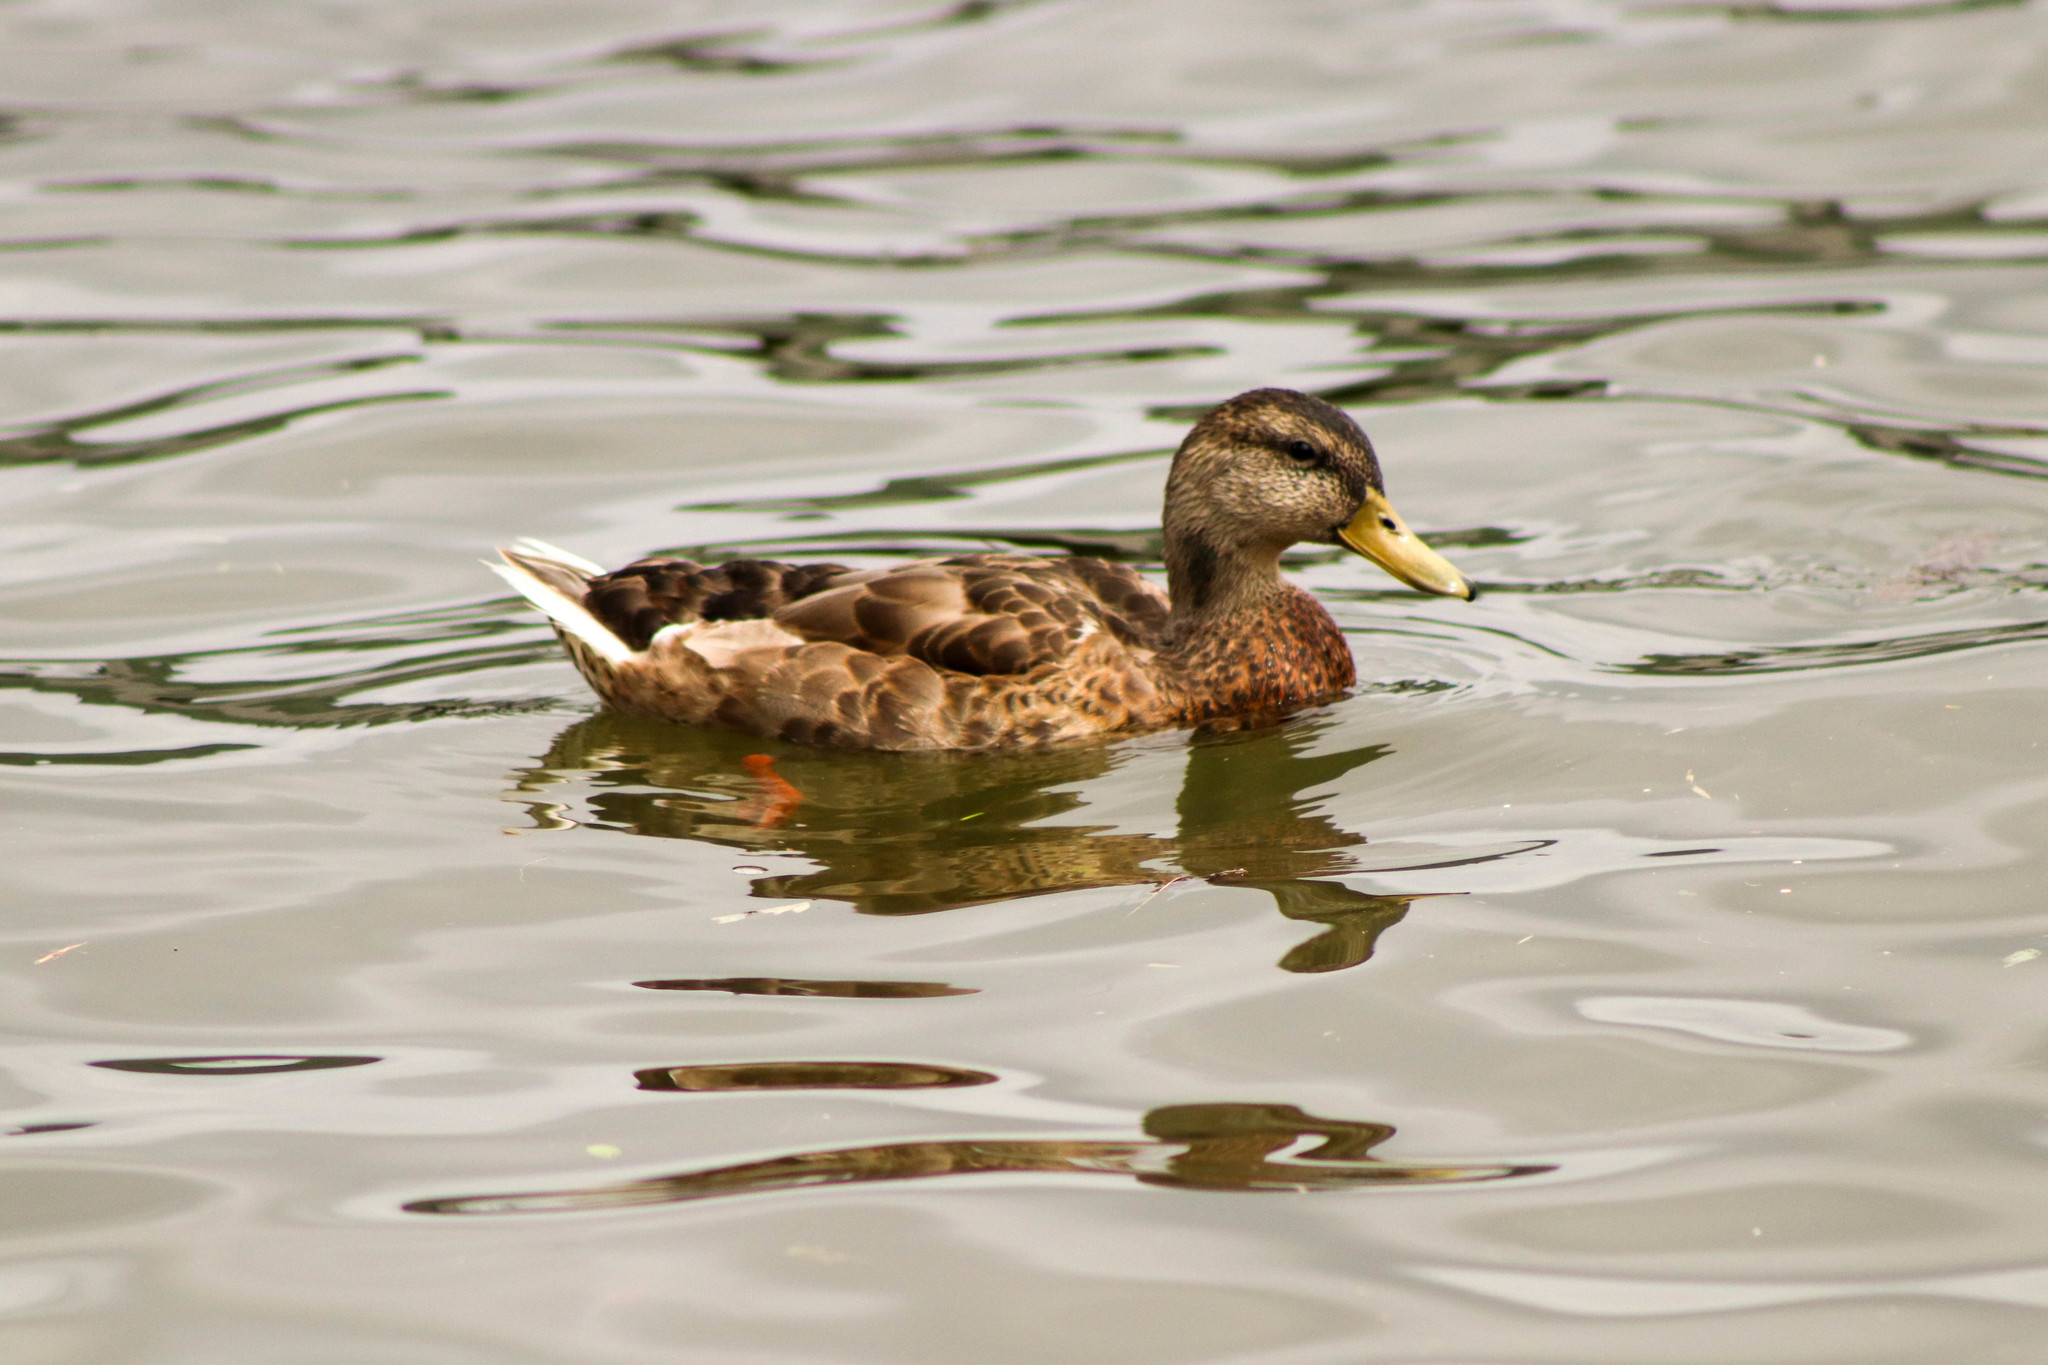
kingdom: Animalia
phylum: Chordata
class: Aves
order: Anseriformes
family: Anatidae
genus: Anas
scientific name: Anas platyrhynchos
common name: Mallard
